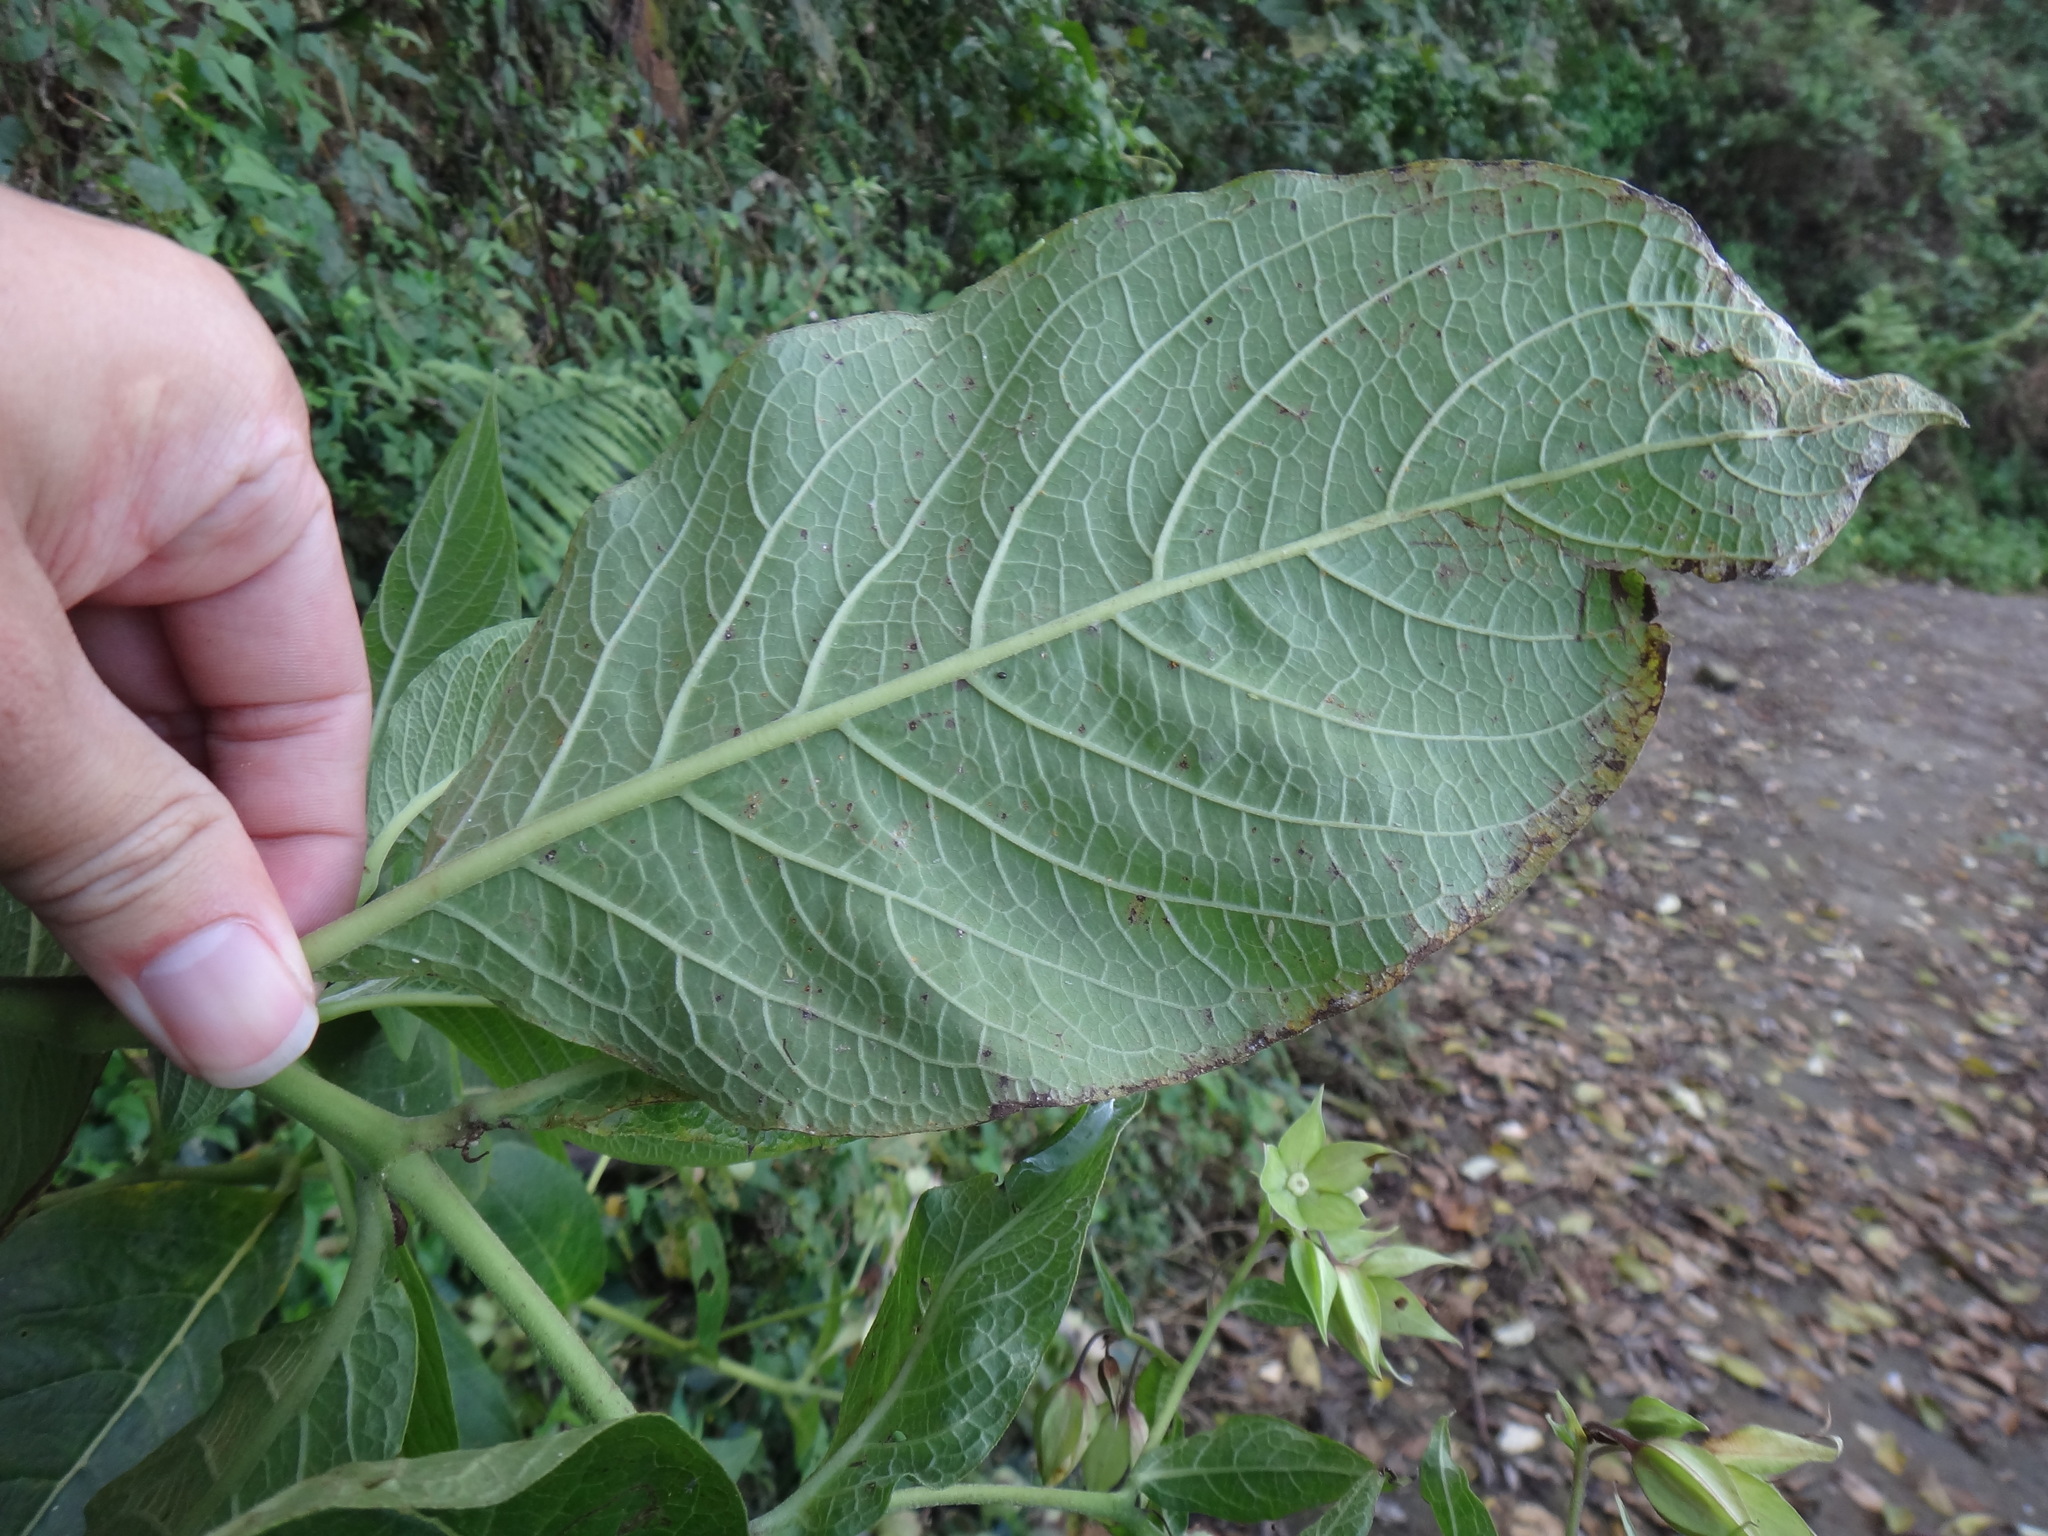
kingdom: Plantae
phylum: Tracheophyta
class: Magnoliopsida
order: Boraginales
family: Boraginaceae
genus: Trichodesma
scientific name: Trichodesma calycosum
